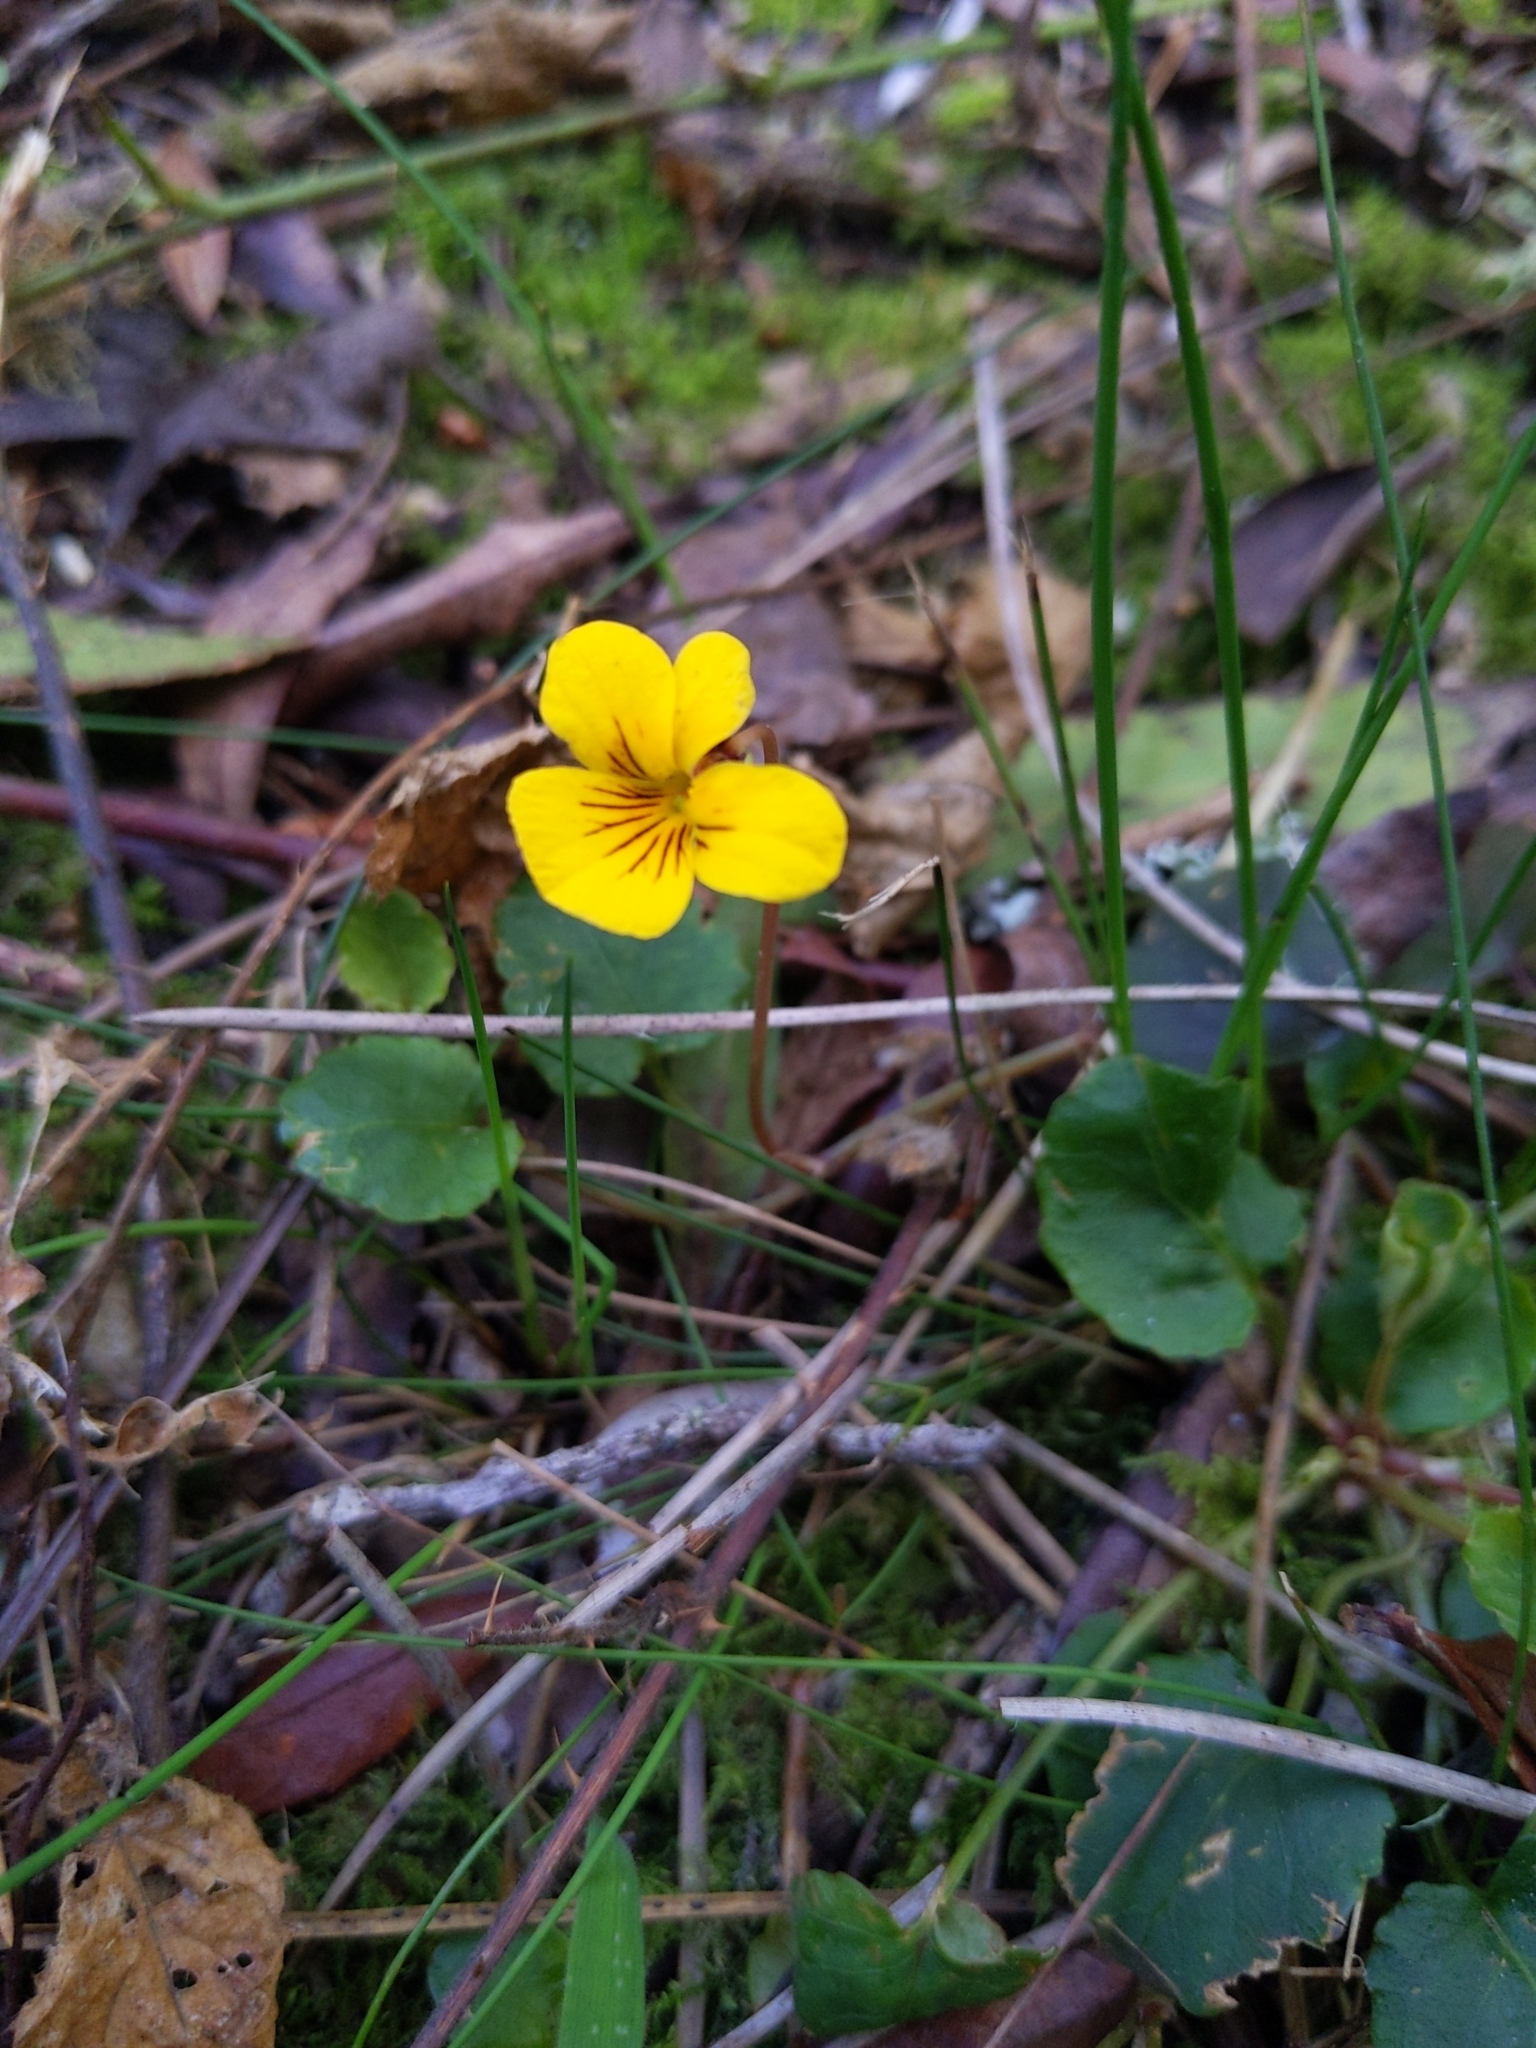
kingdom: Plantae
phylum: Tracheophyta
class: Magnoliopsida
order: Malpighiales
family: Violaceae
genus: Viola
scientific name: Viola sempervirens
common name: Evergreen violet
